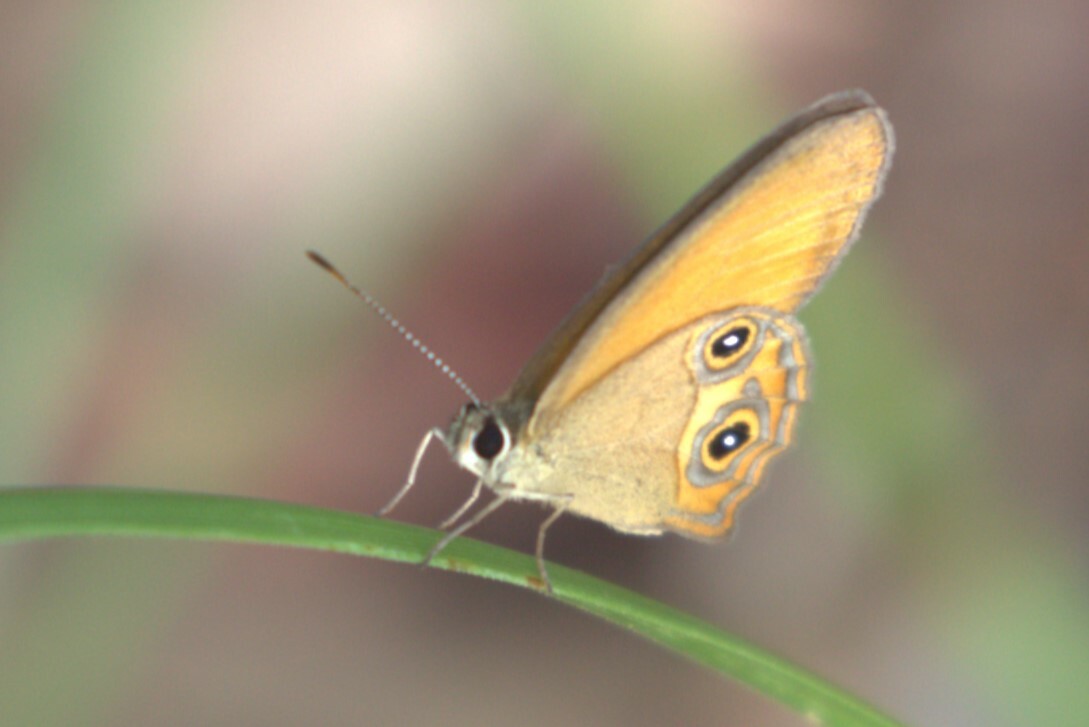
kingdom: Animalia
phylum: Arthropoda
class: Insecta
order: Lepidoptera
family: Nymphalidae
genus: Hypocysta
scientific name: Hypocysta adiante
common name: Orange ringlet
